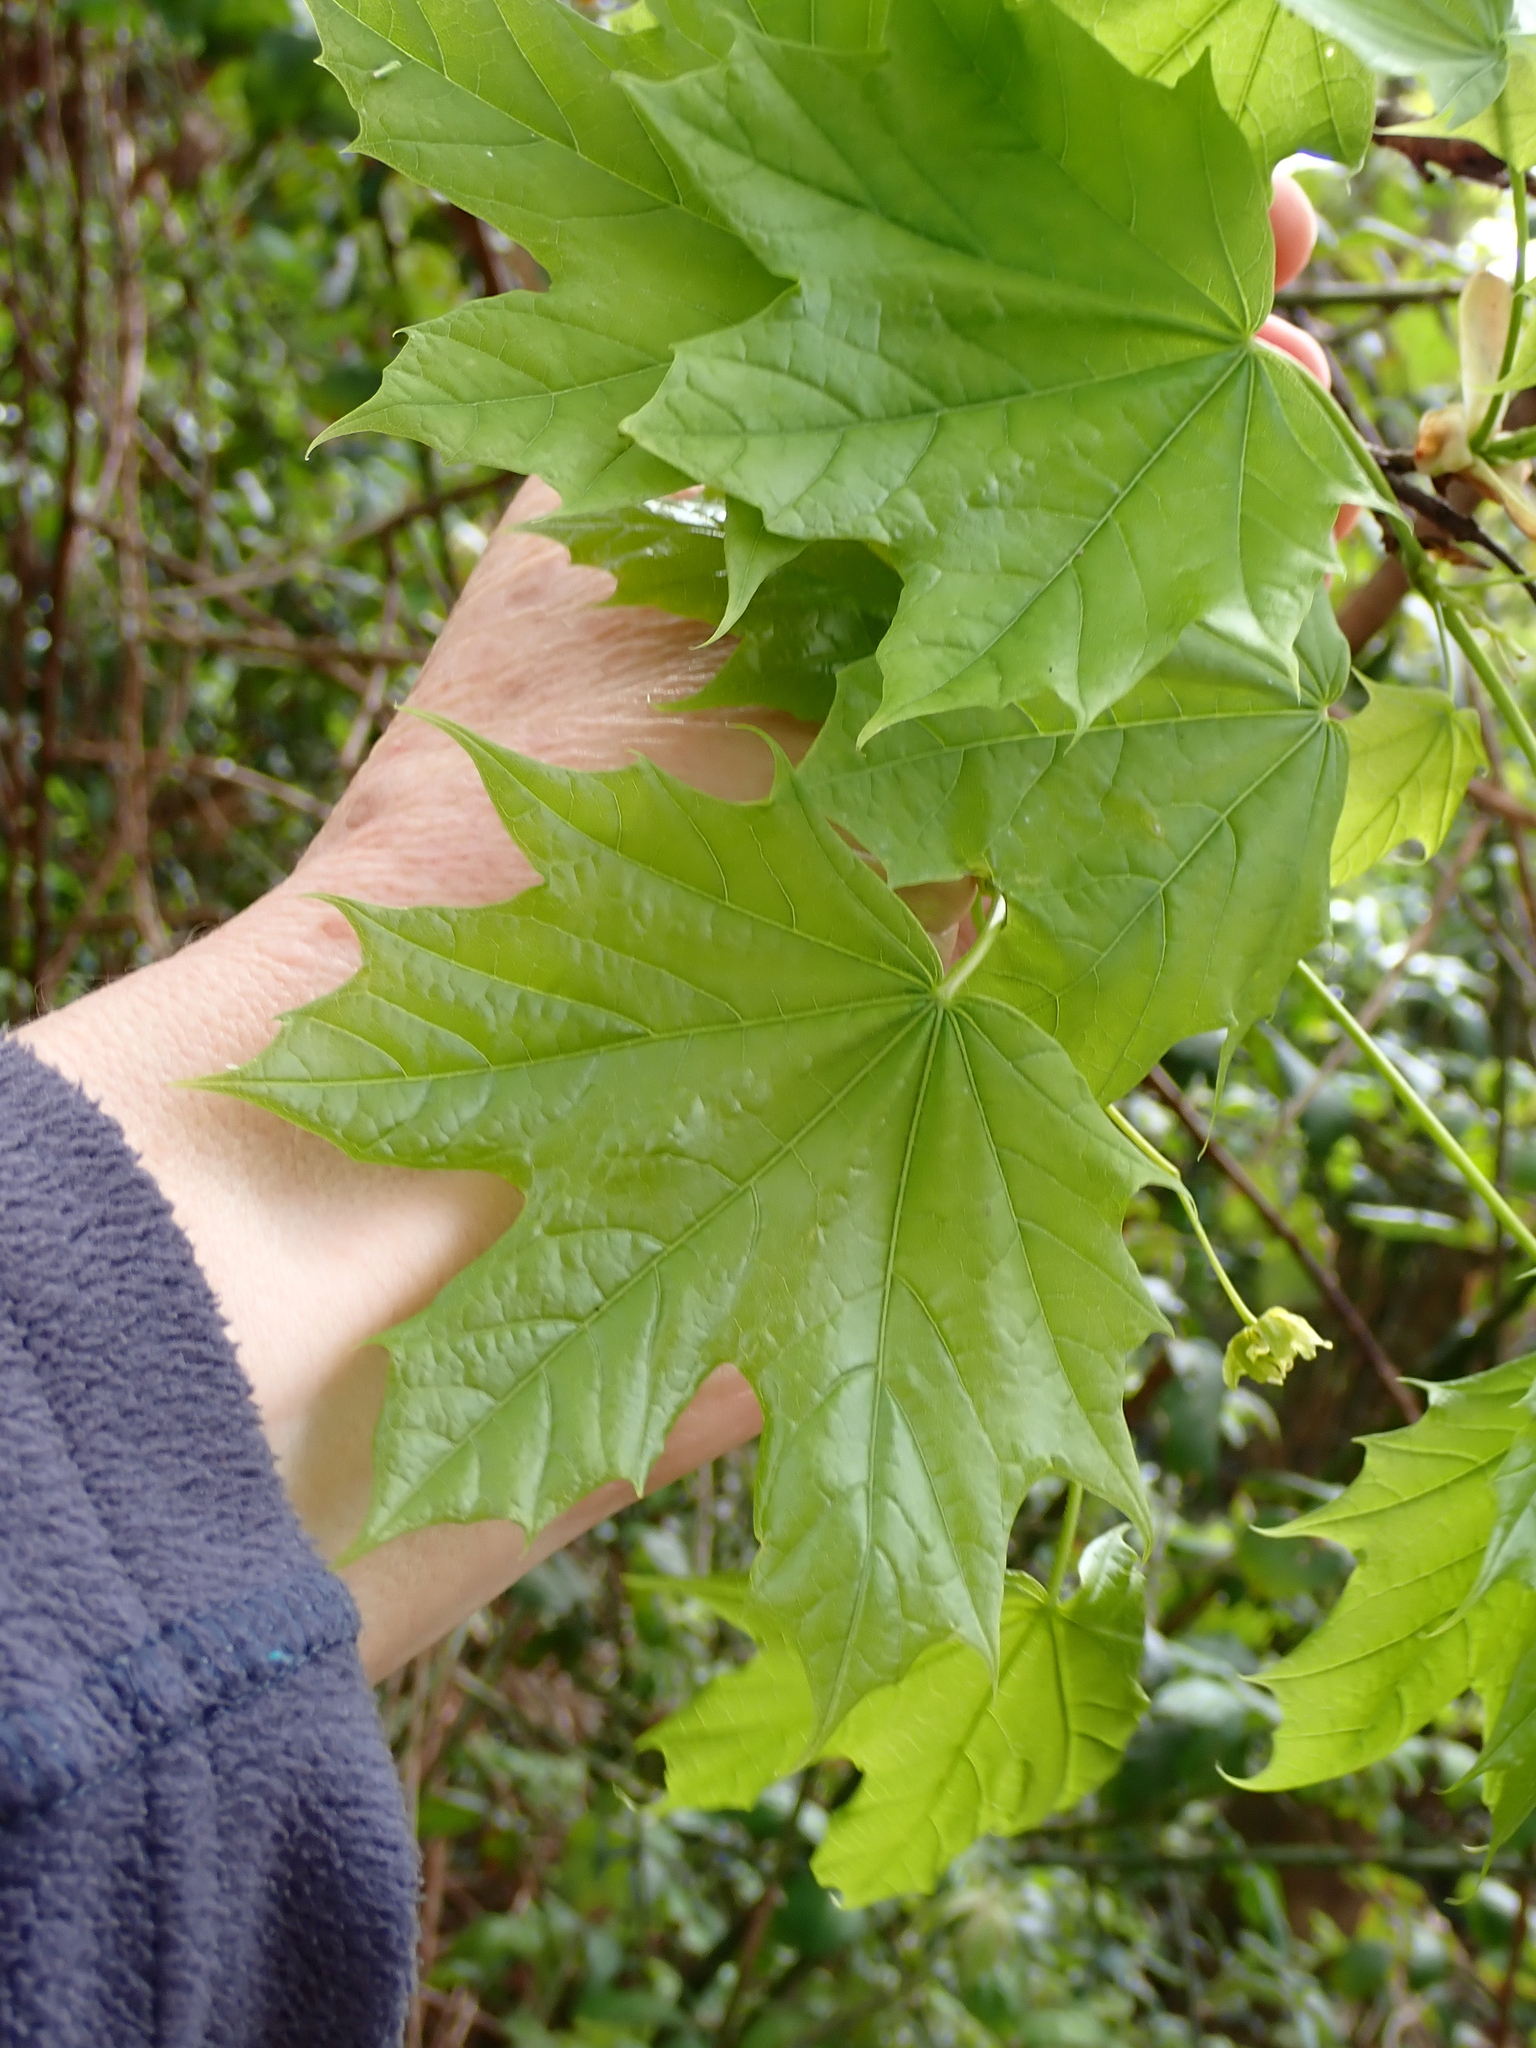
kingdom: Plantae
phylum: Tracheophyta
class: Magnoliopsida
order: Sapindales
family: Sapindaceae
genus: Acer
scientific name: Acer platanoides
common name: Norway maple
